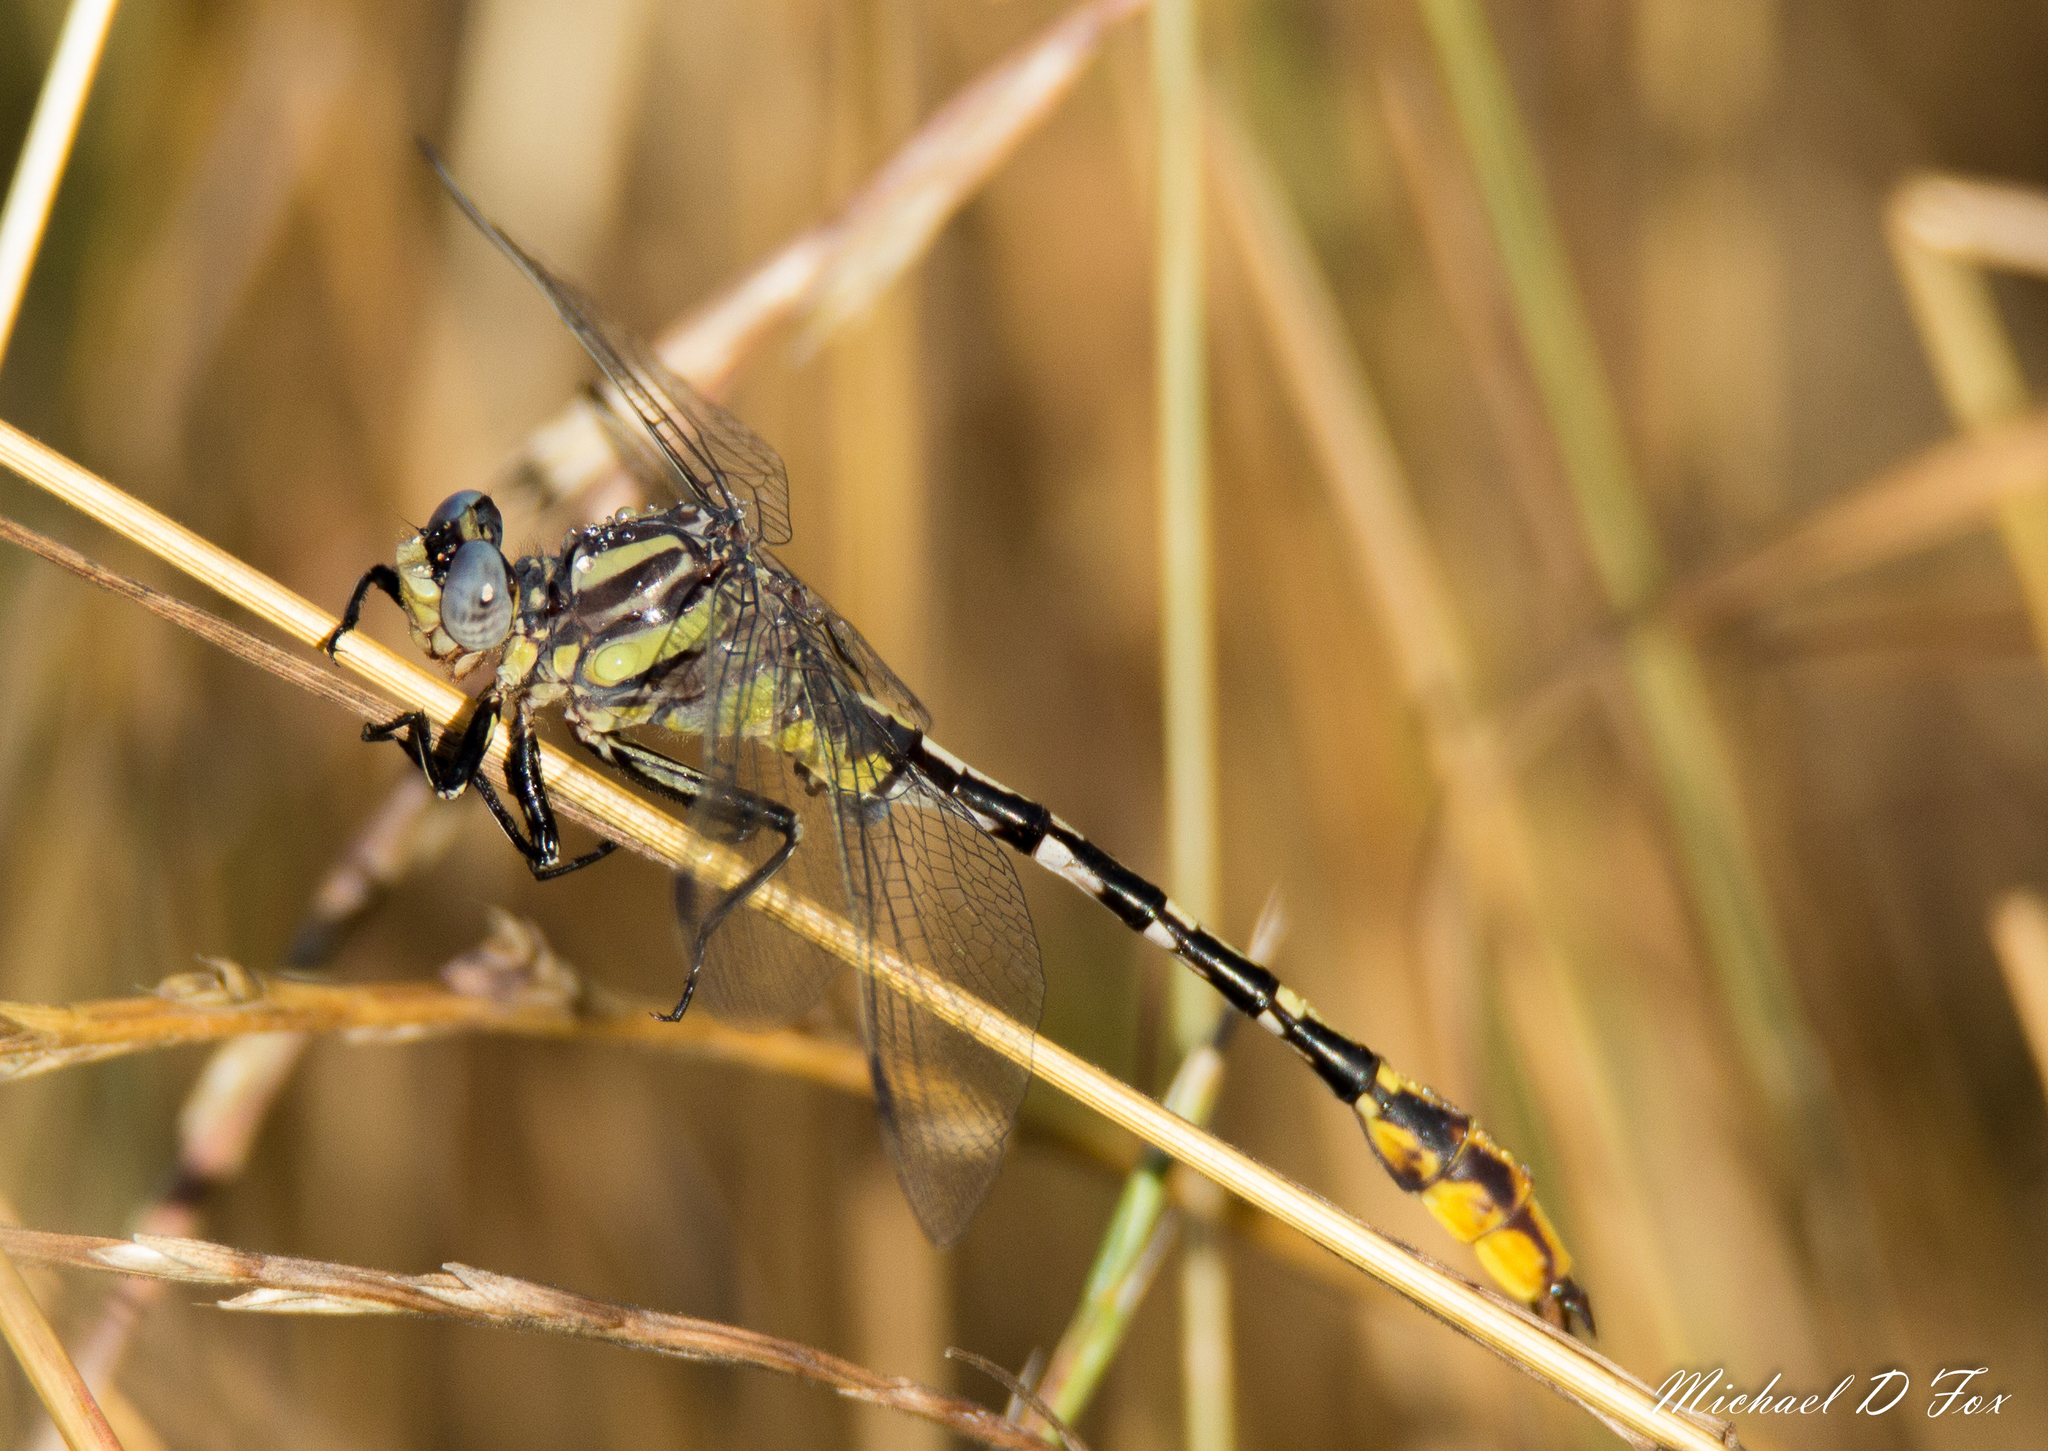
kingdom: Animalia
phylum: Arthropoda
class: Insecta
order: Odonata
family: Gomphidae
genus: Phanogomphus
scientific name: Phanogomphus militaris
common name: Sulphur-tipped clubtail
